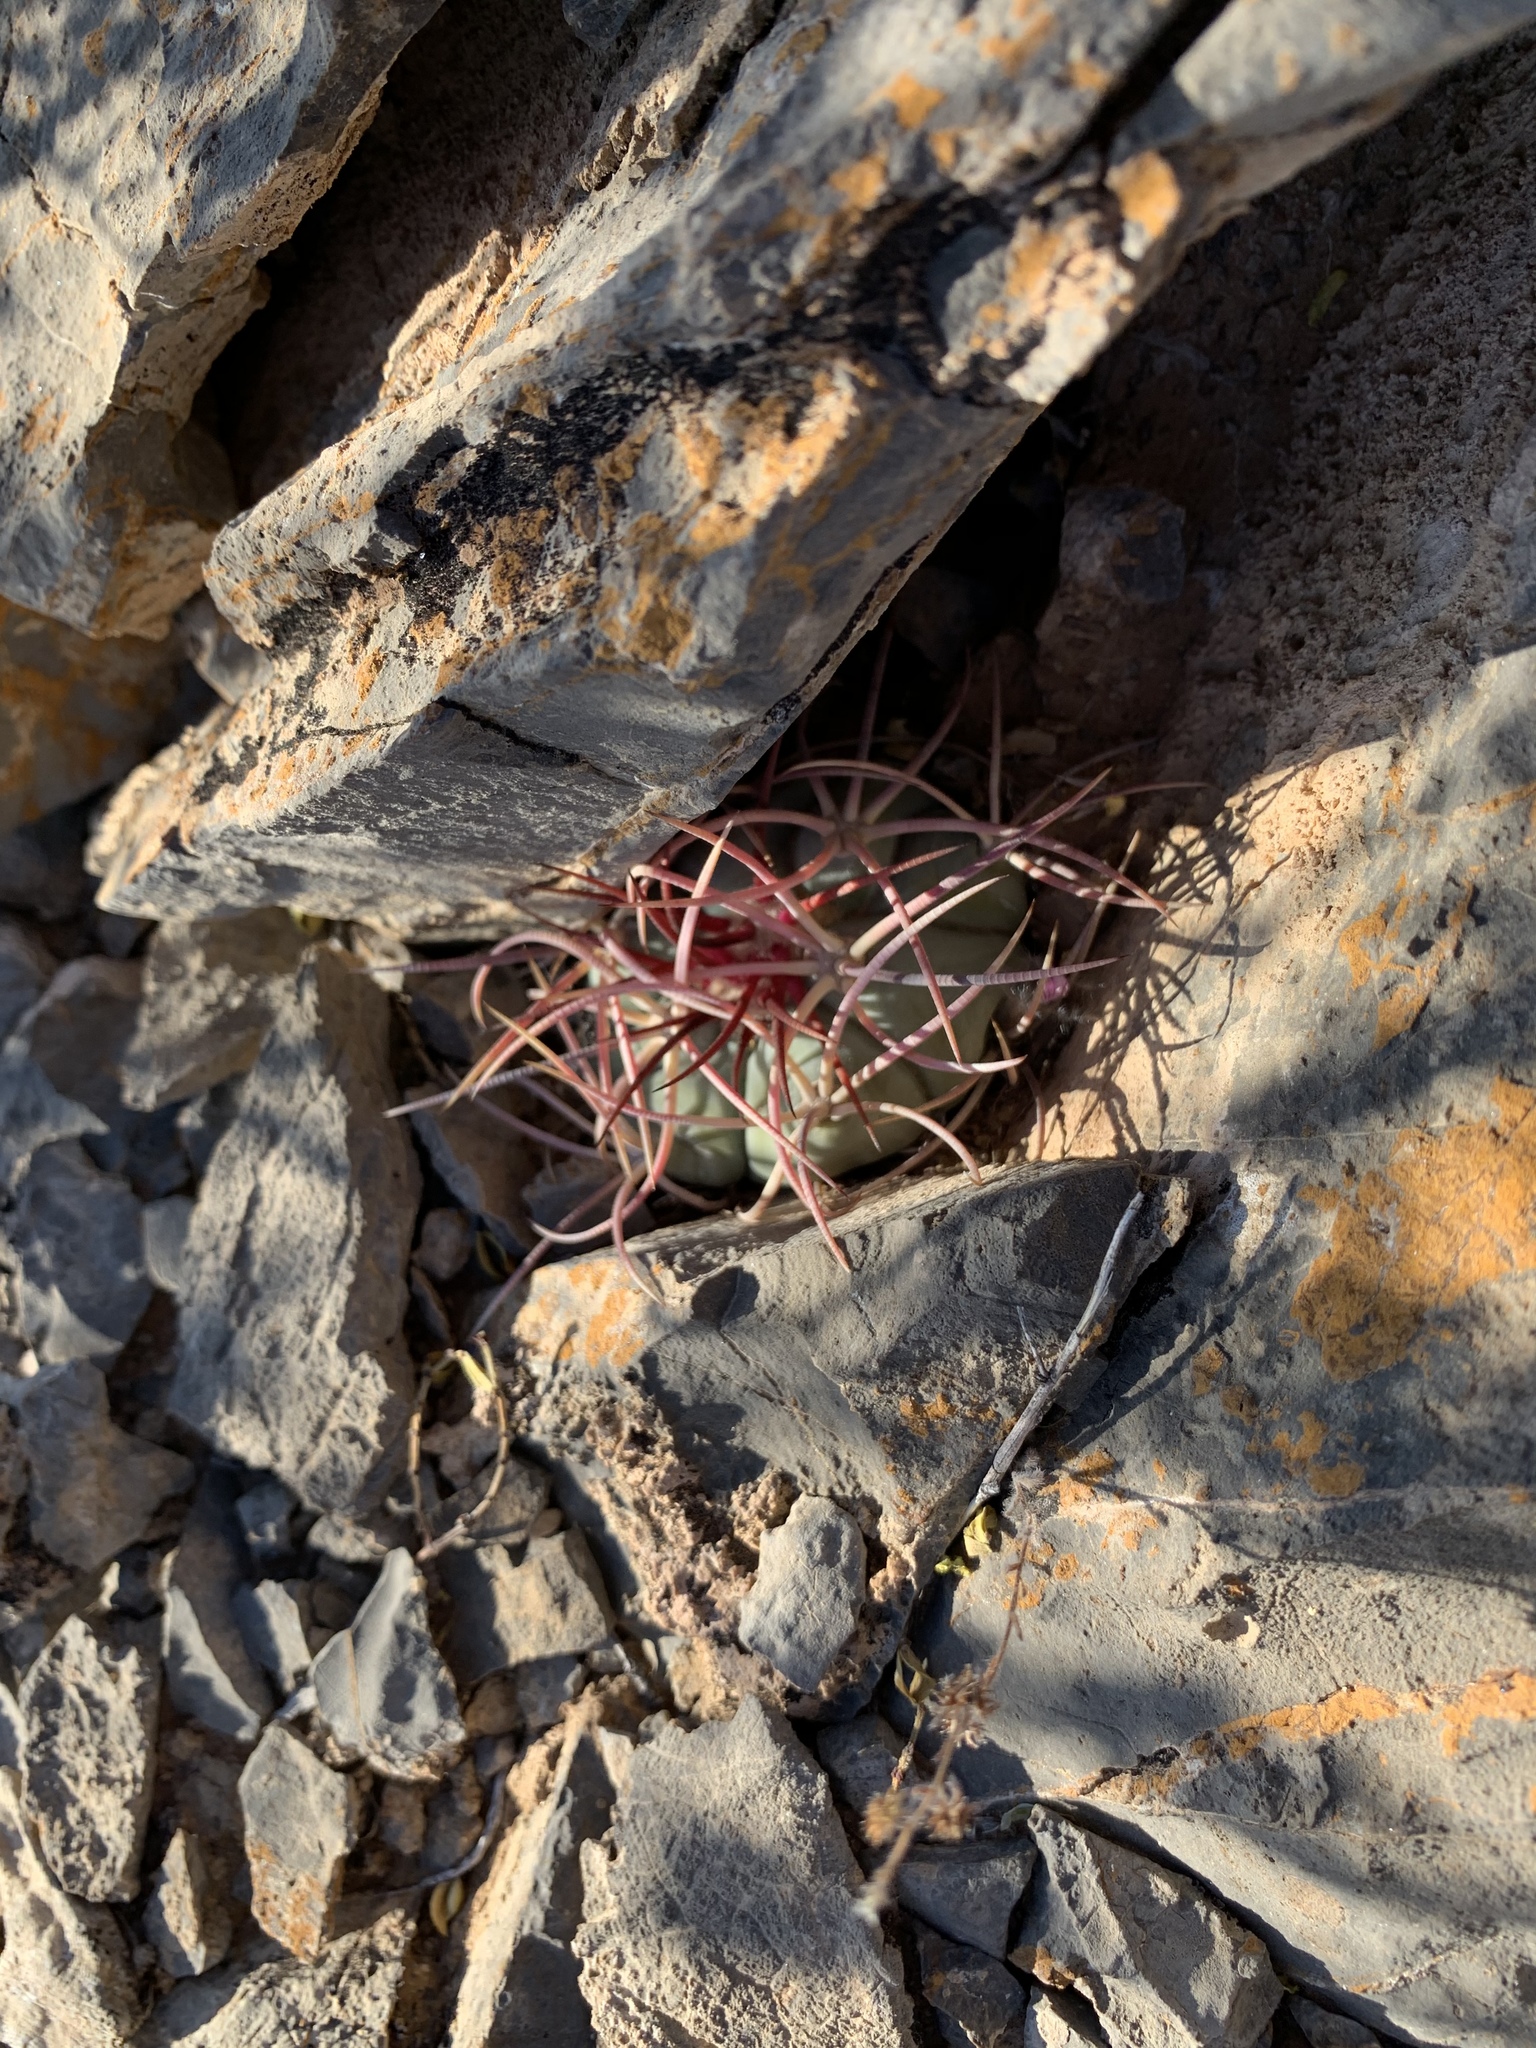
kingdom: Plantae
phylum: Tracheophyta
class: Magnoliopsida
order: Caryophyllales
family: Cactaceae
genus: Echinocactus
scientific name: Echinocactus horizonthalonius
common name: Devilshead
